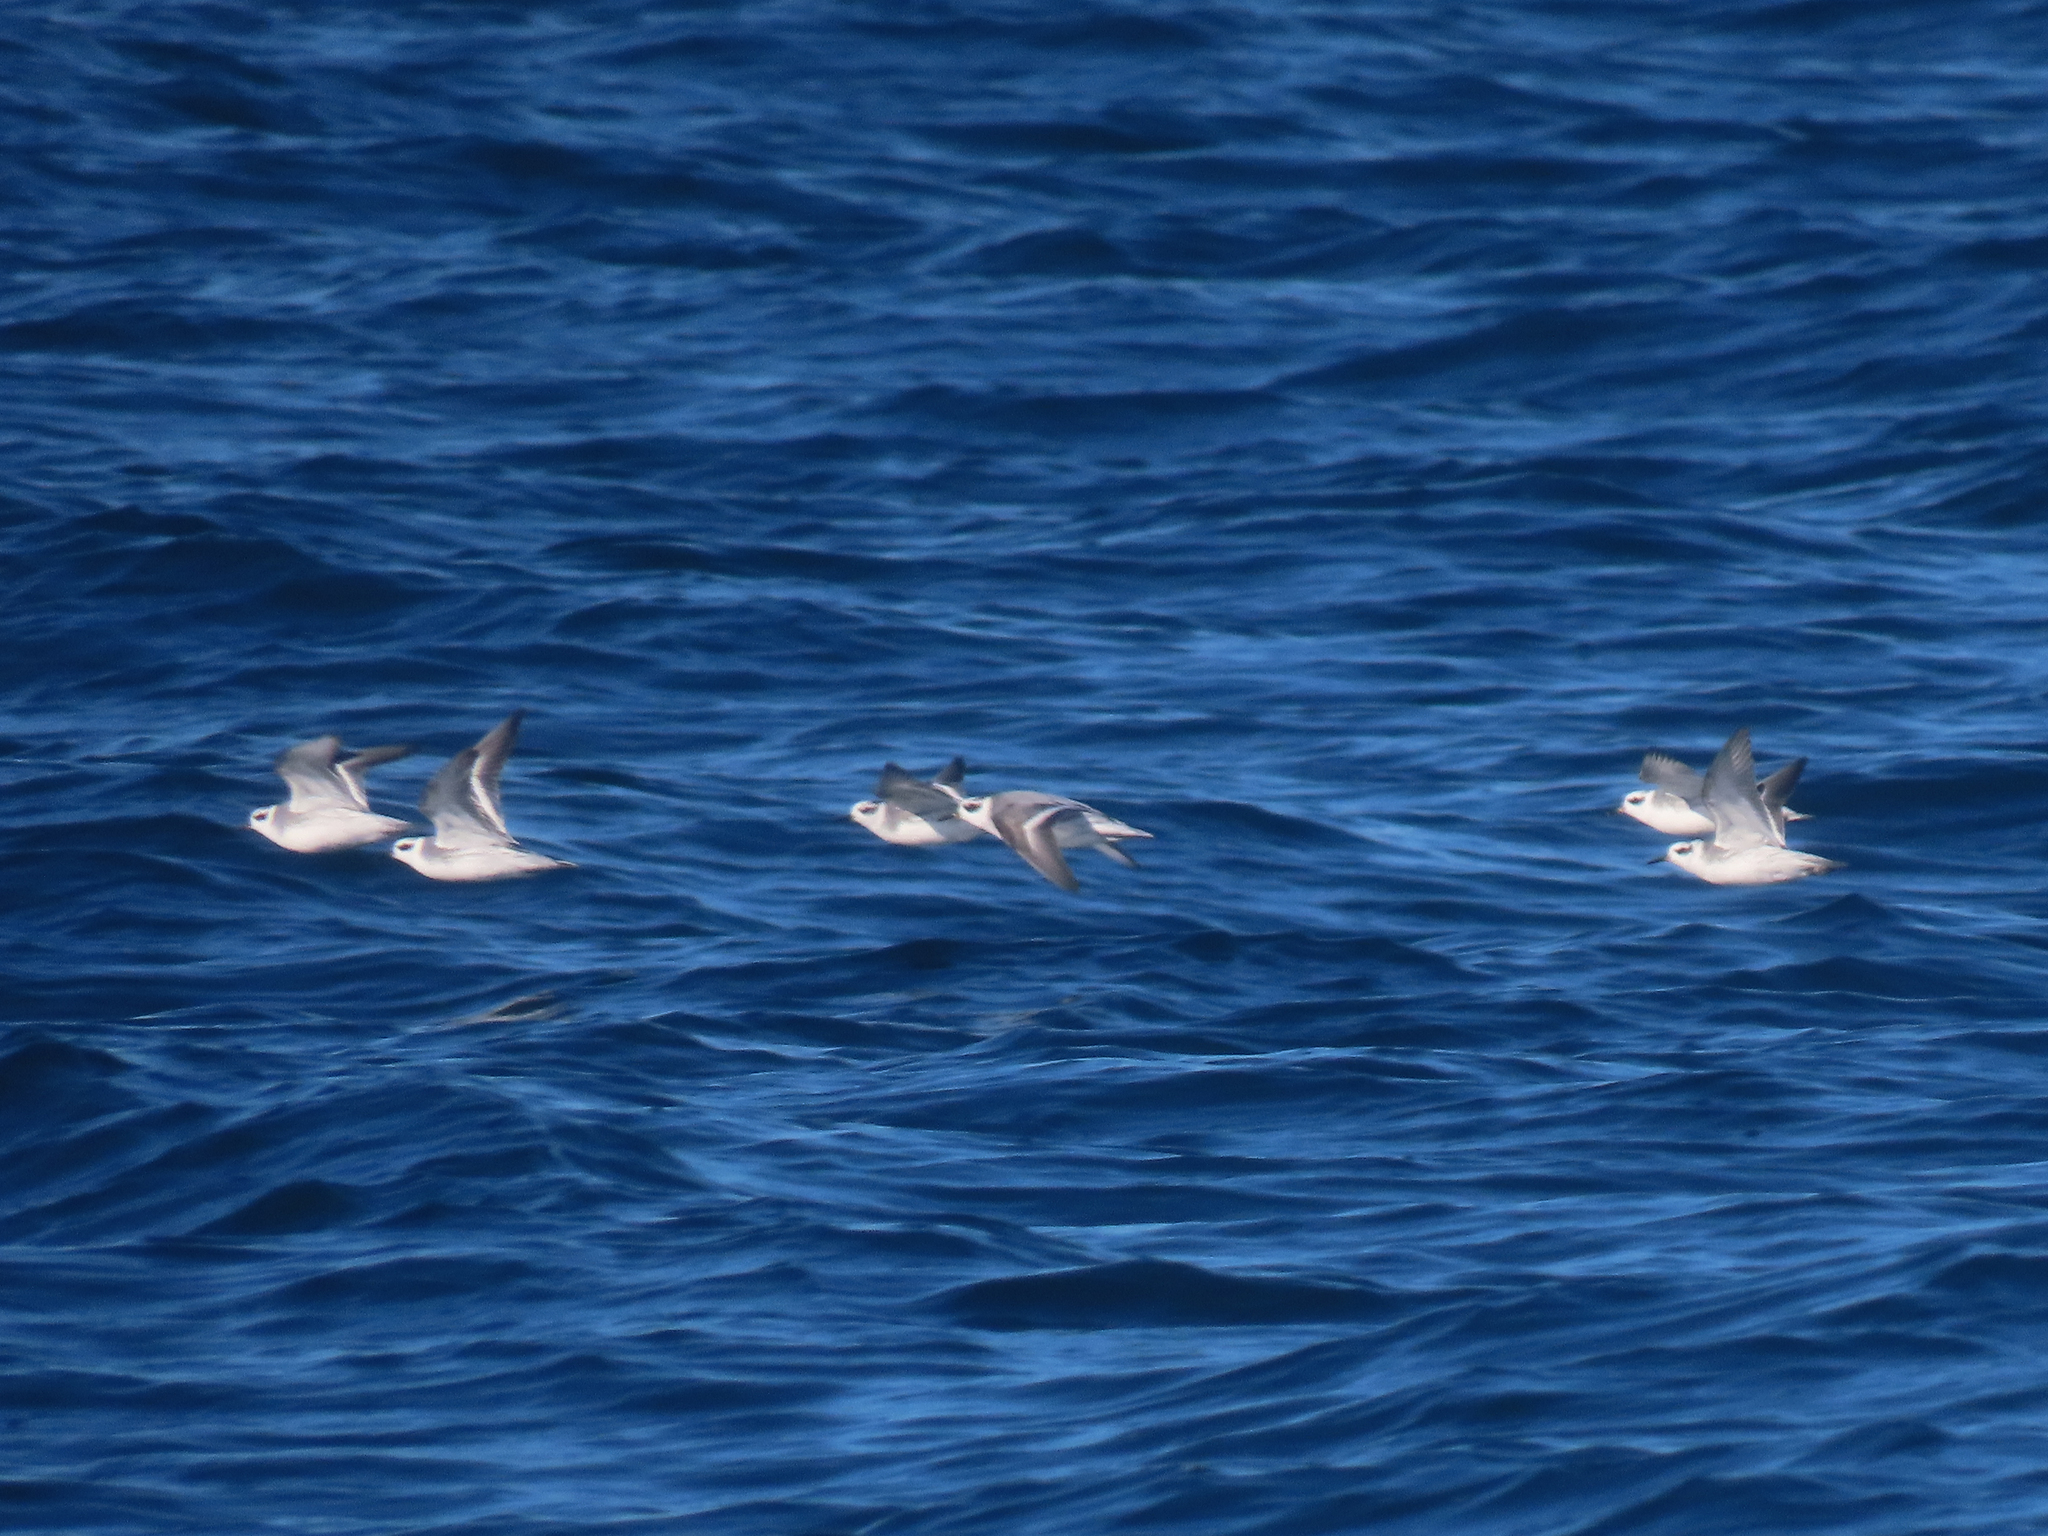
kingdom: Animalia
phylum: Chordata
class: Aves
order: Charadriiformes
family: Scolopacidae
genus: Phalaropus
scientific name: Phalaropus fulicarius
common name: Red phalarope
